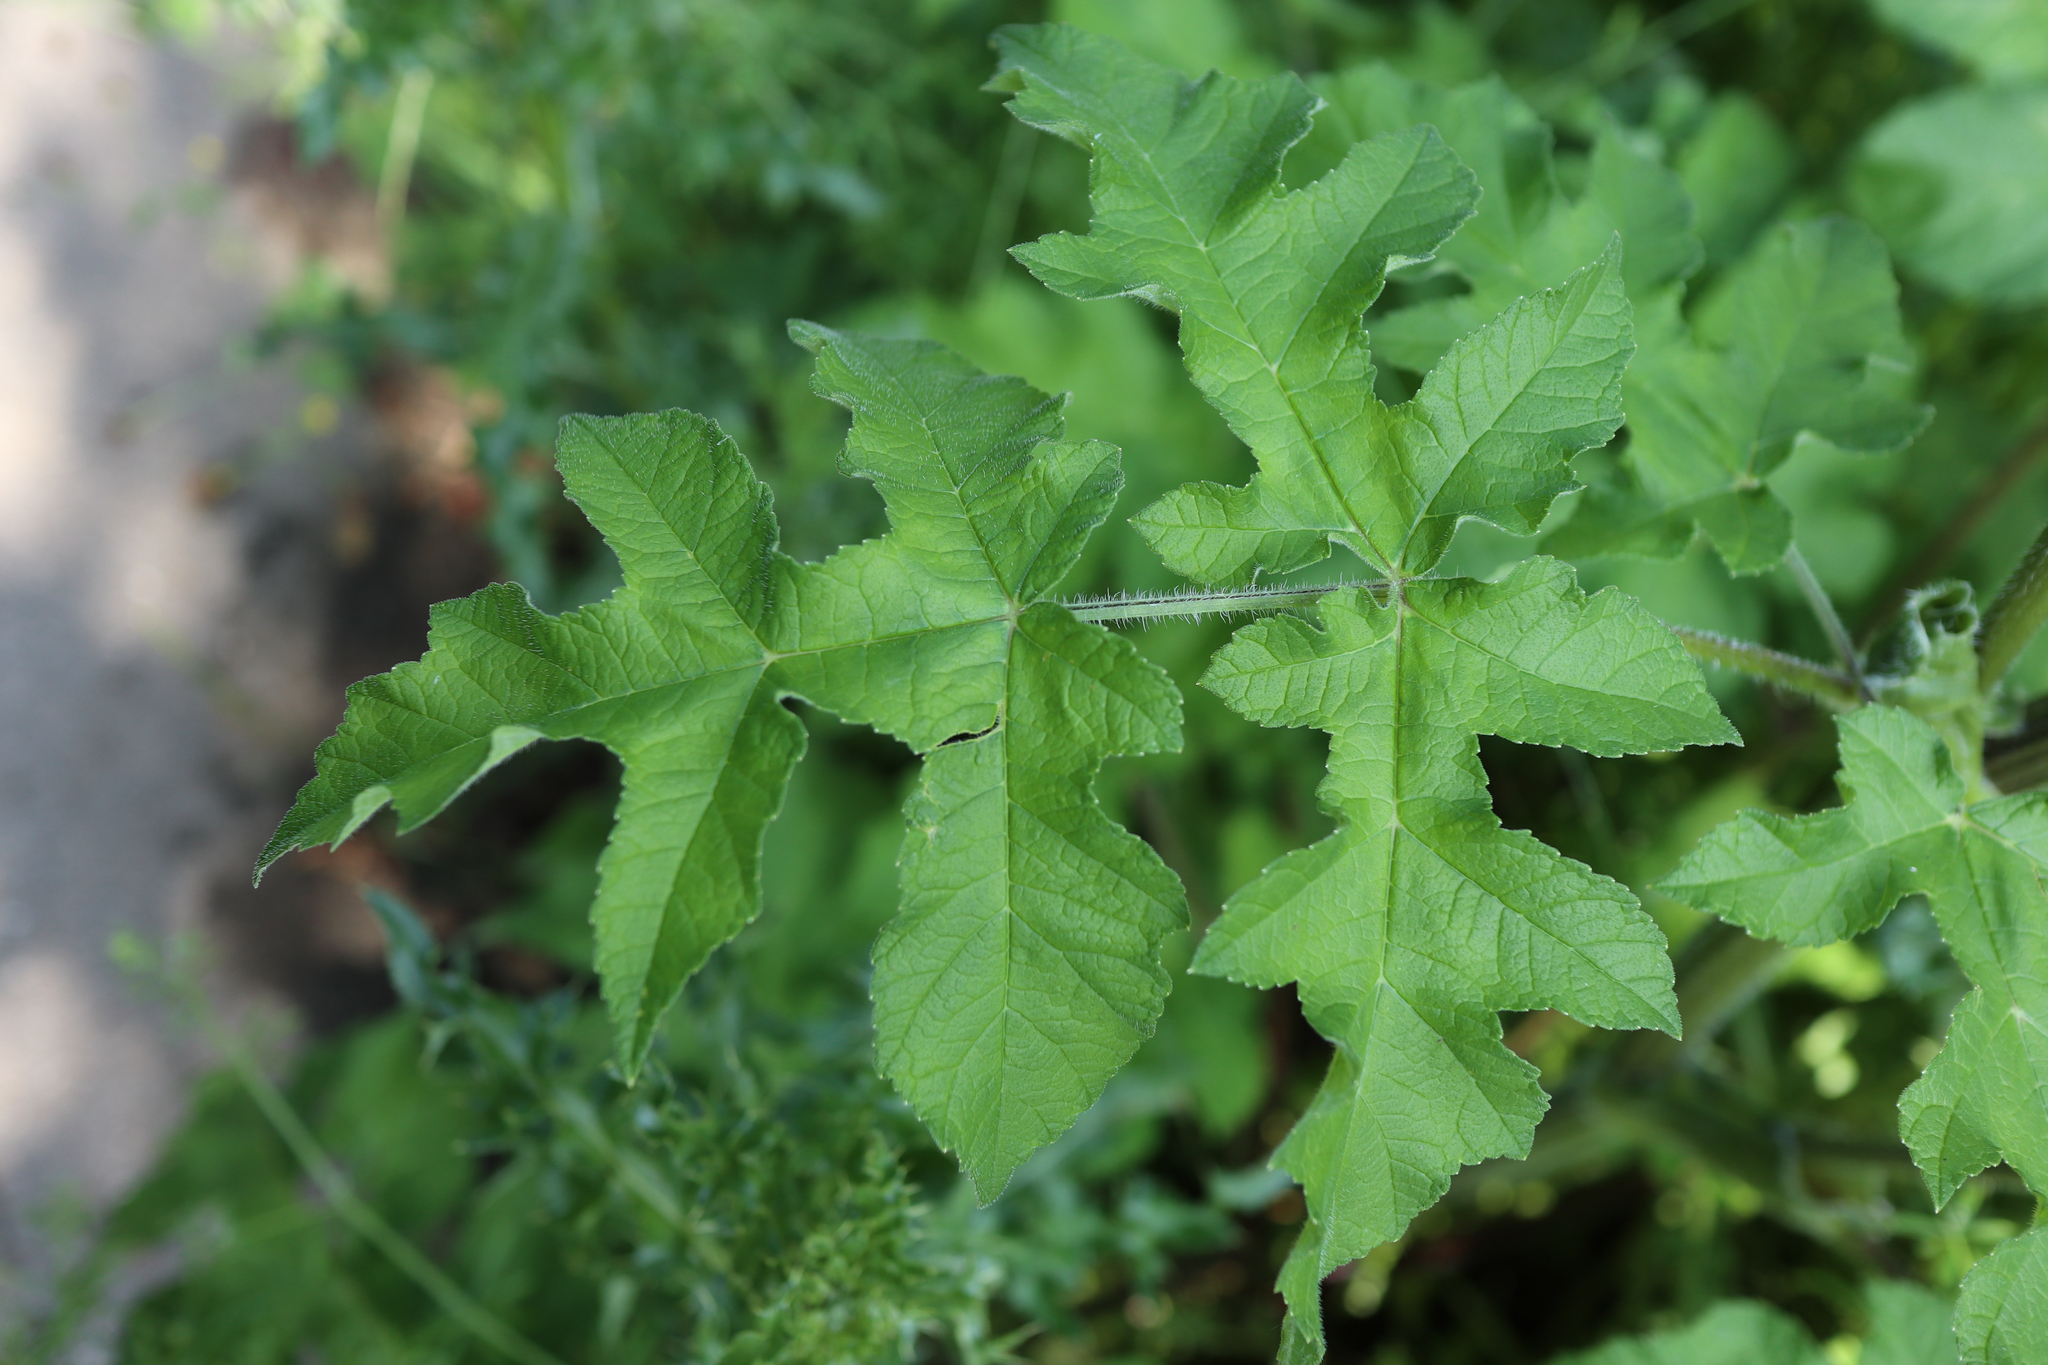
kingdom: Plantae
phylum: Tracheophyta
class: Magnoliopsida
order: Apiales
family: Apiaceae
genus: Heracleum
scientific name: Heracleum sphondylium
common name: Hogweed
